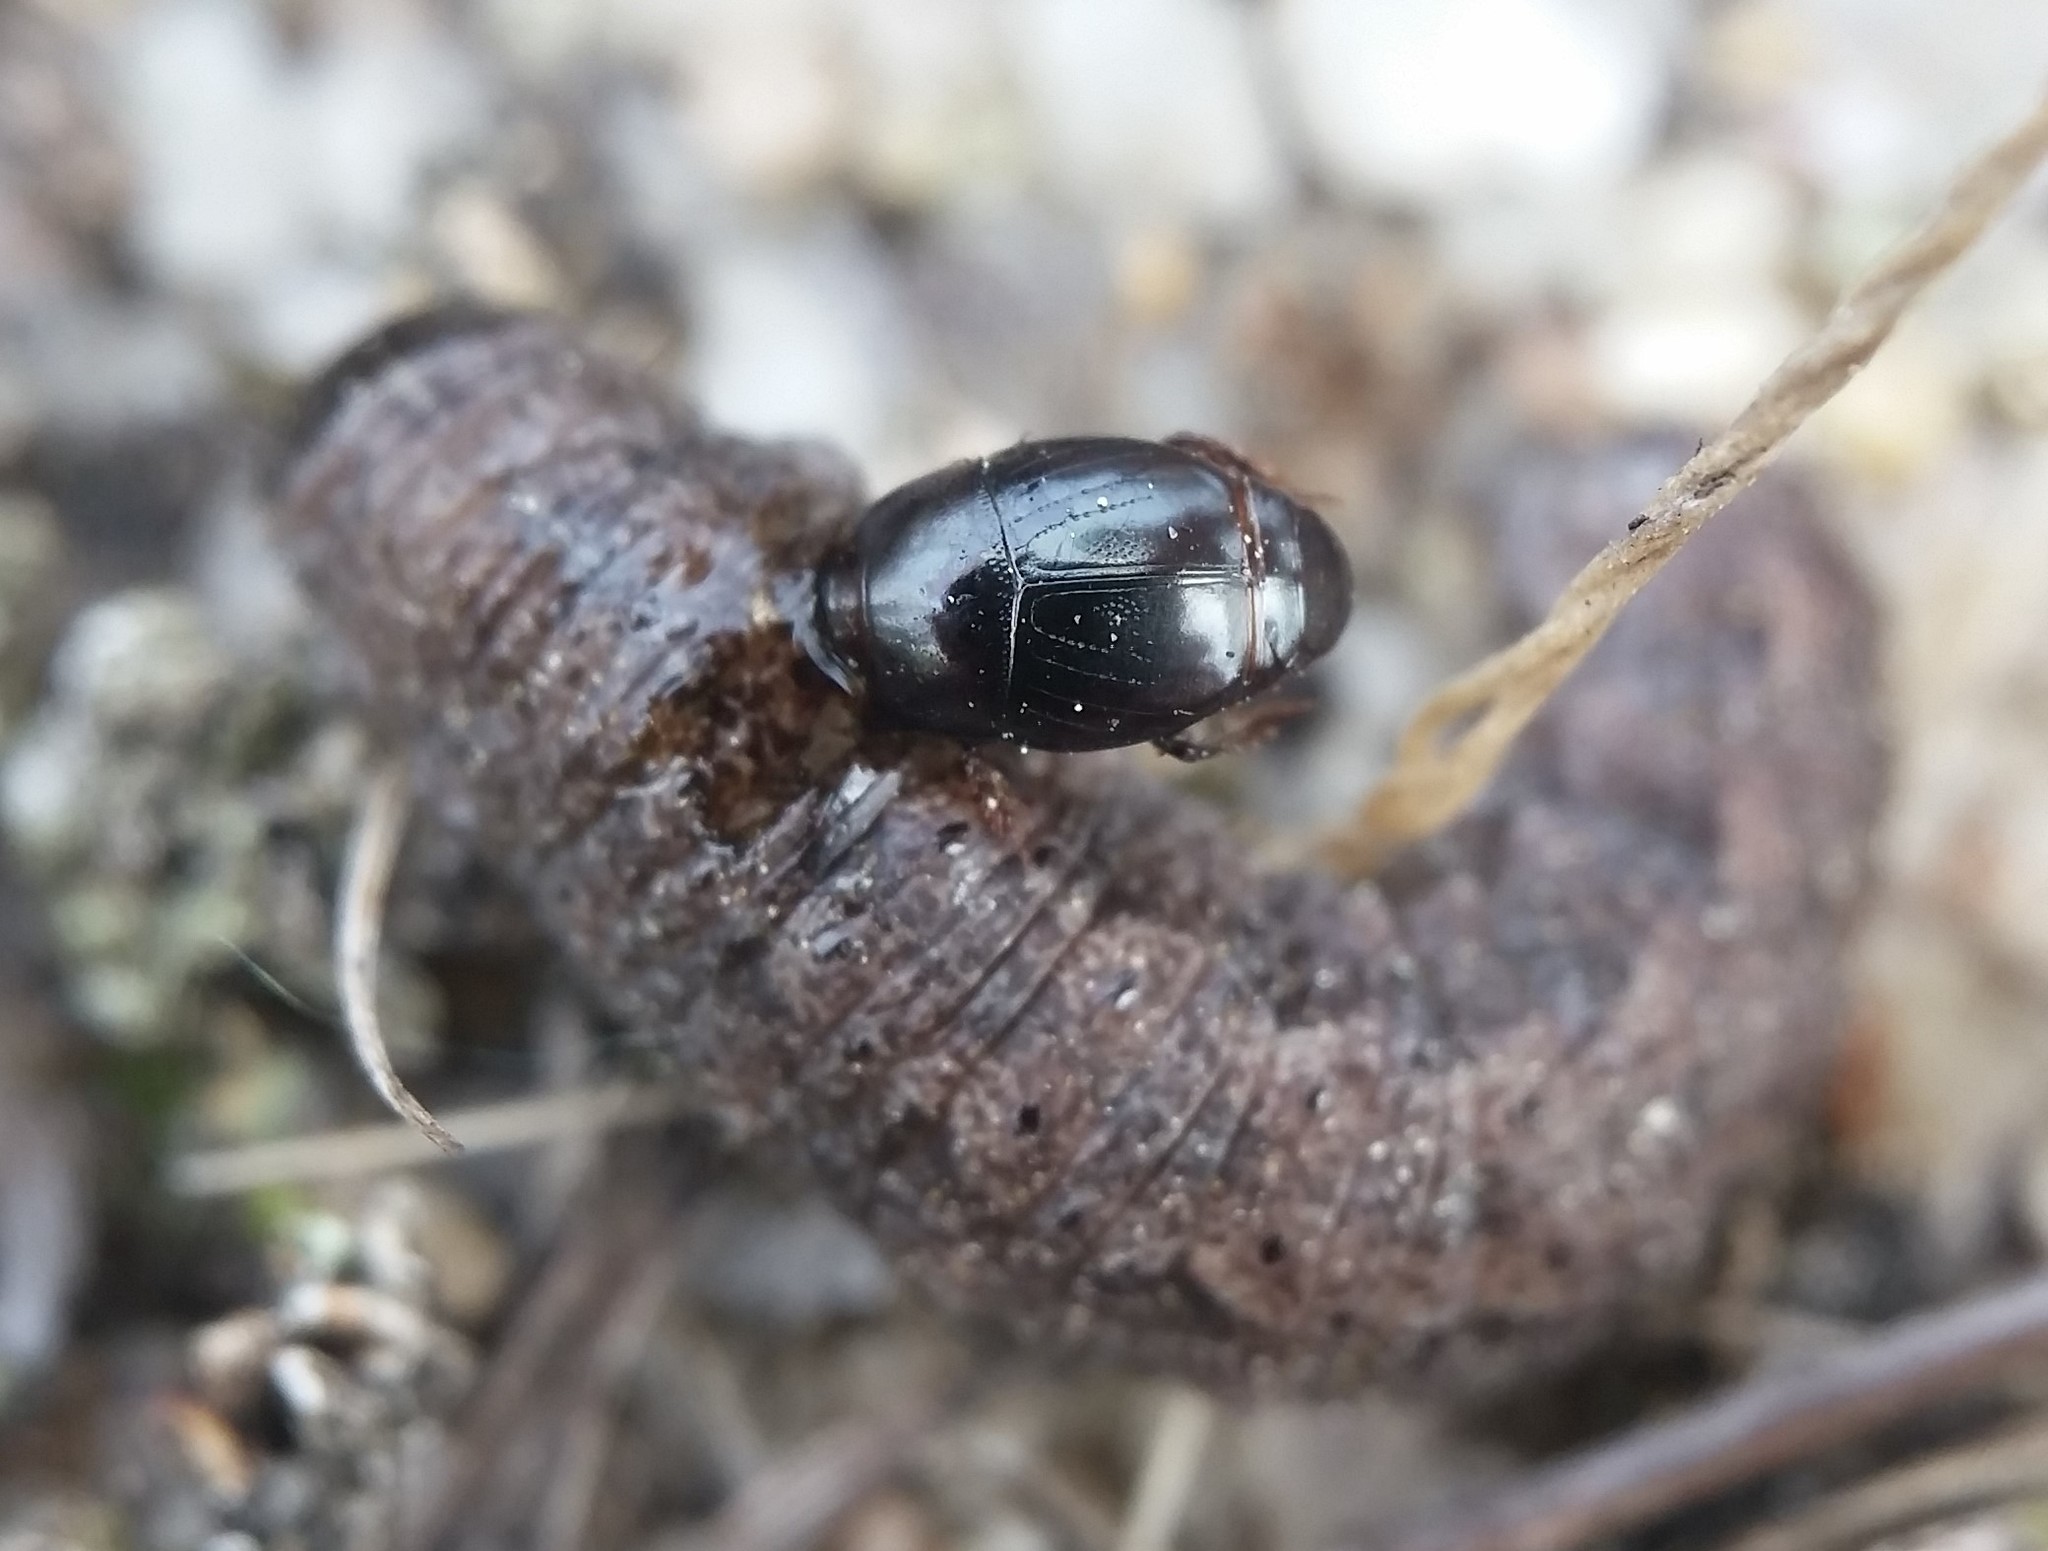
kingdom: Animalia
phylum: Arthropoda
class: Insecta
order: Coleoptera
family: Histeridae
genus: Hypocaccus
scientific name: Hypocaccus lucidulus
